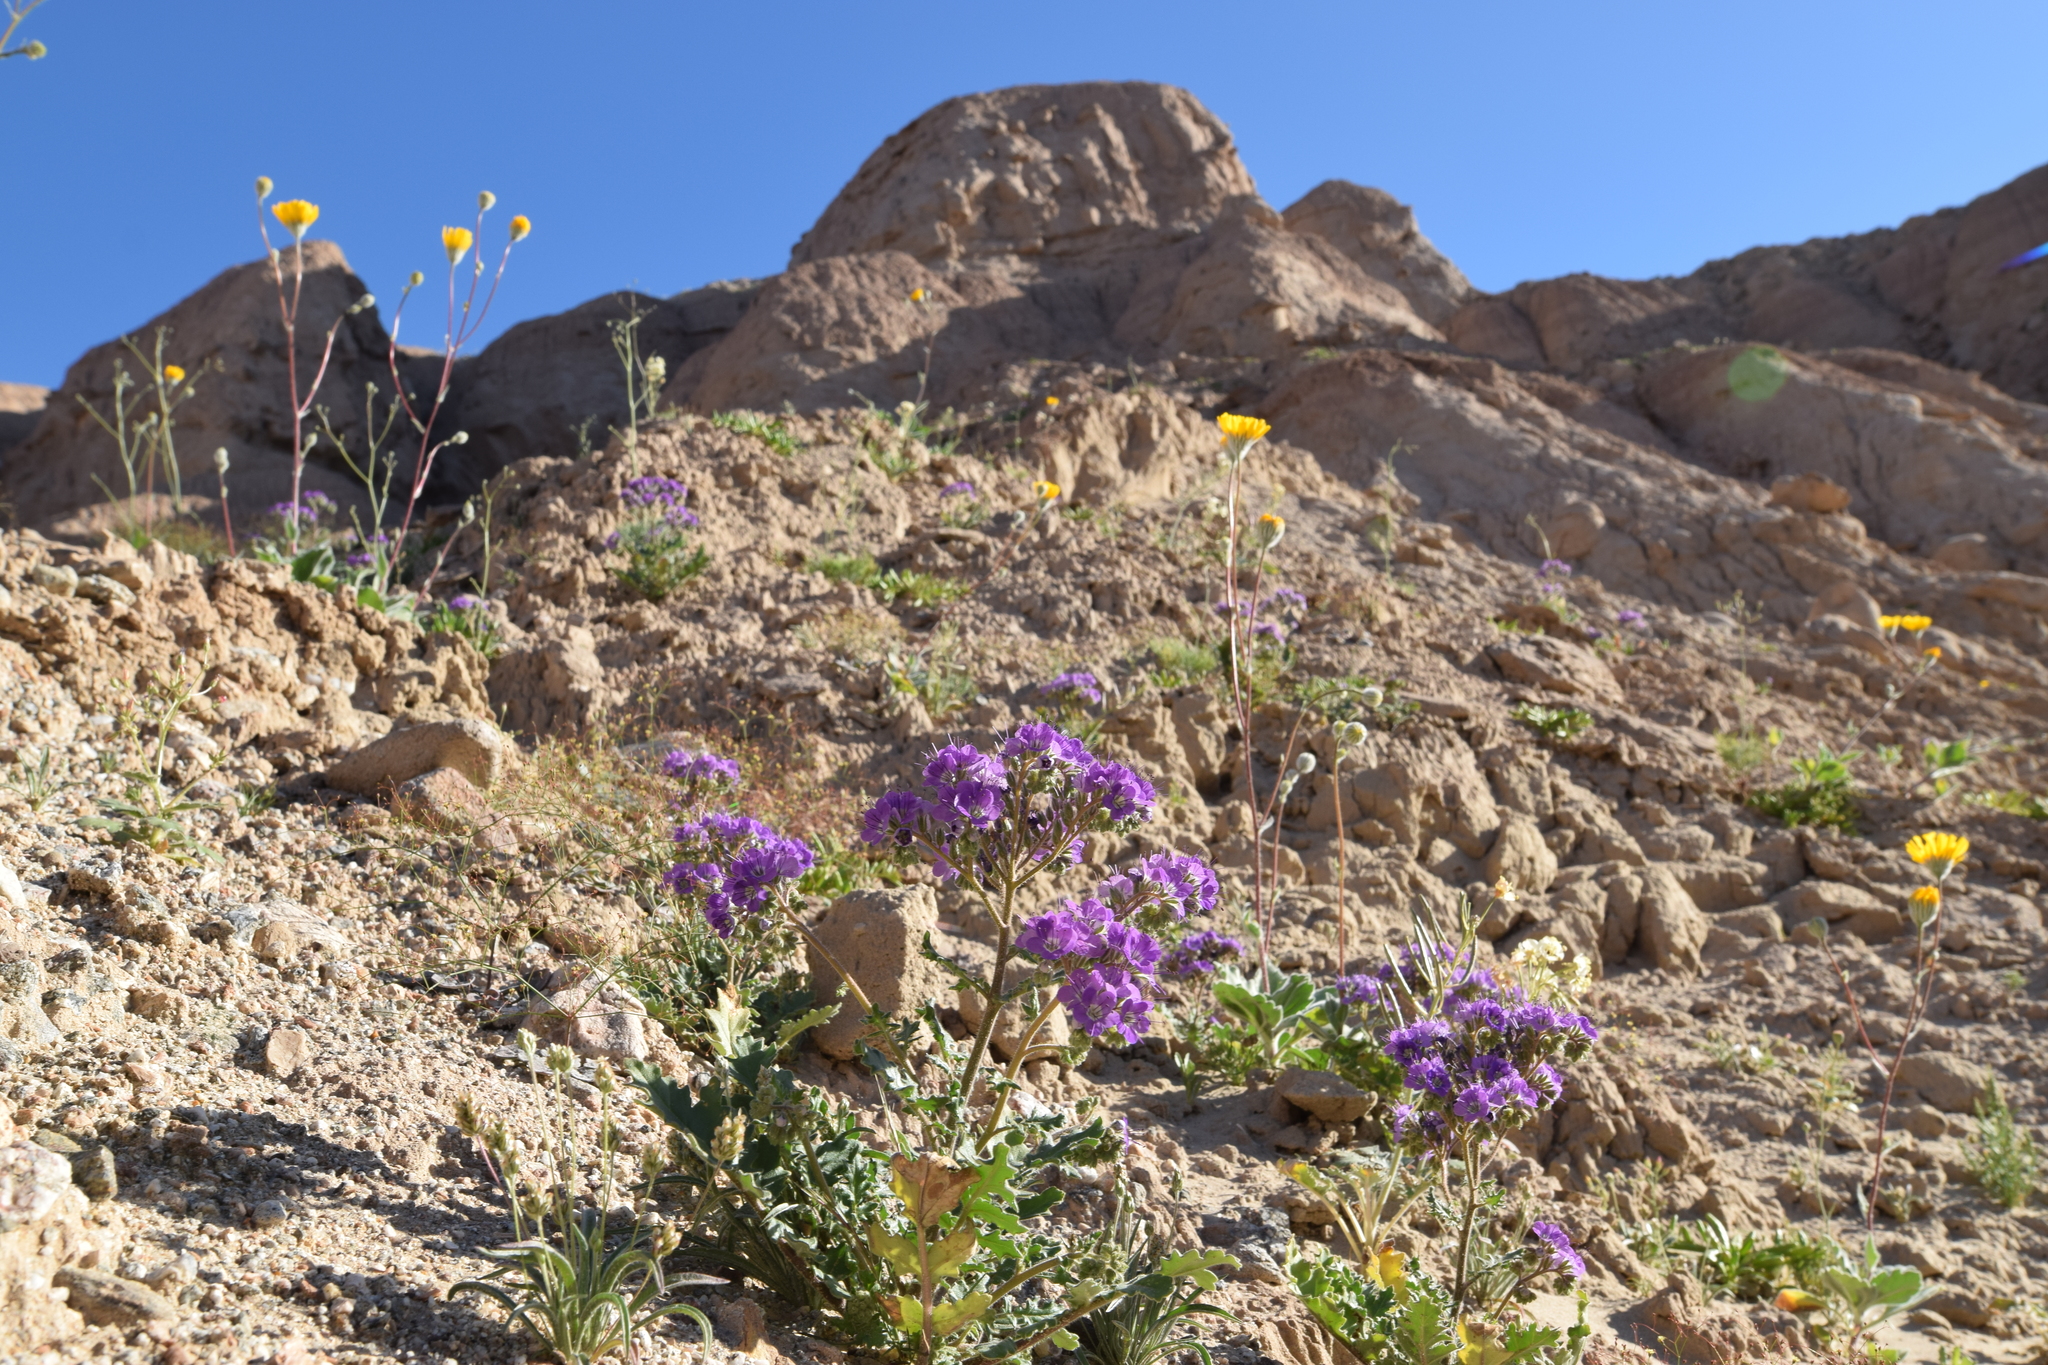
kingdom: Plantae
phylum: Tracheophyta
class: Magnoliopsida
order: Boraginales
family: Hydrophyllaceae
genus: Phacelia
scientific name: Phacelia crenulata
